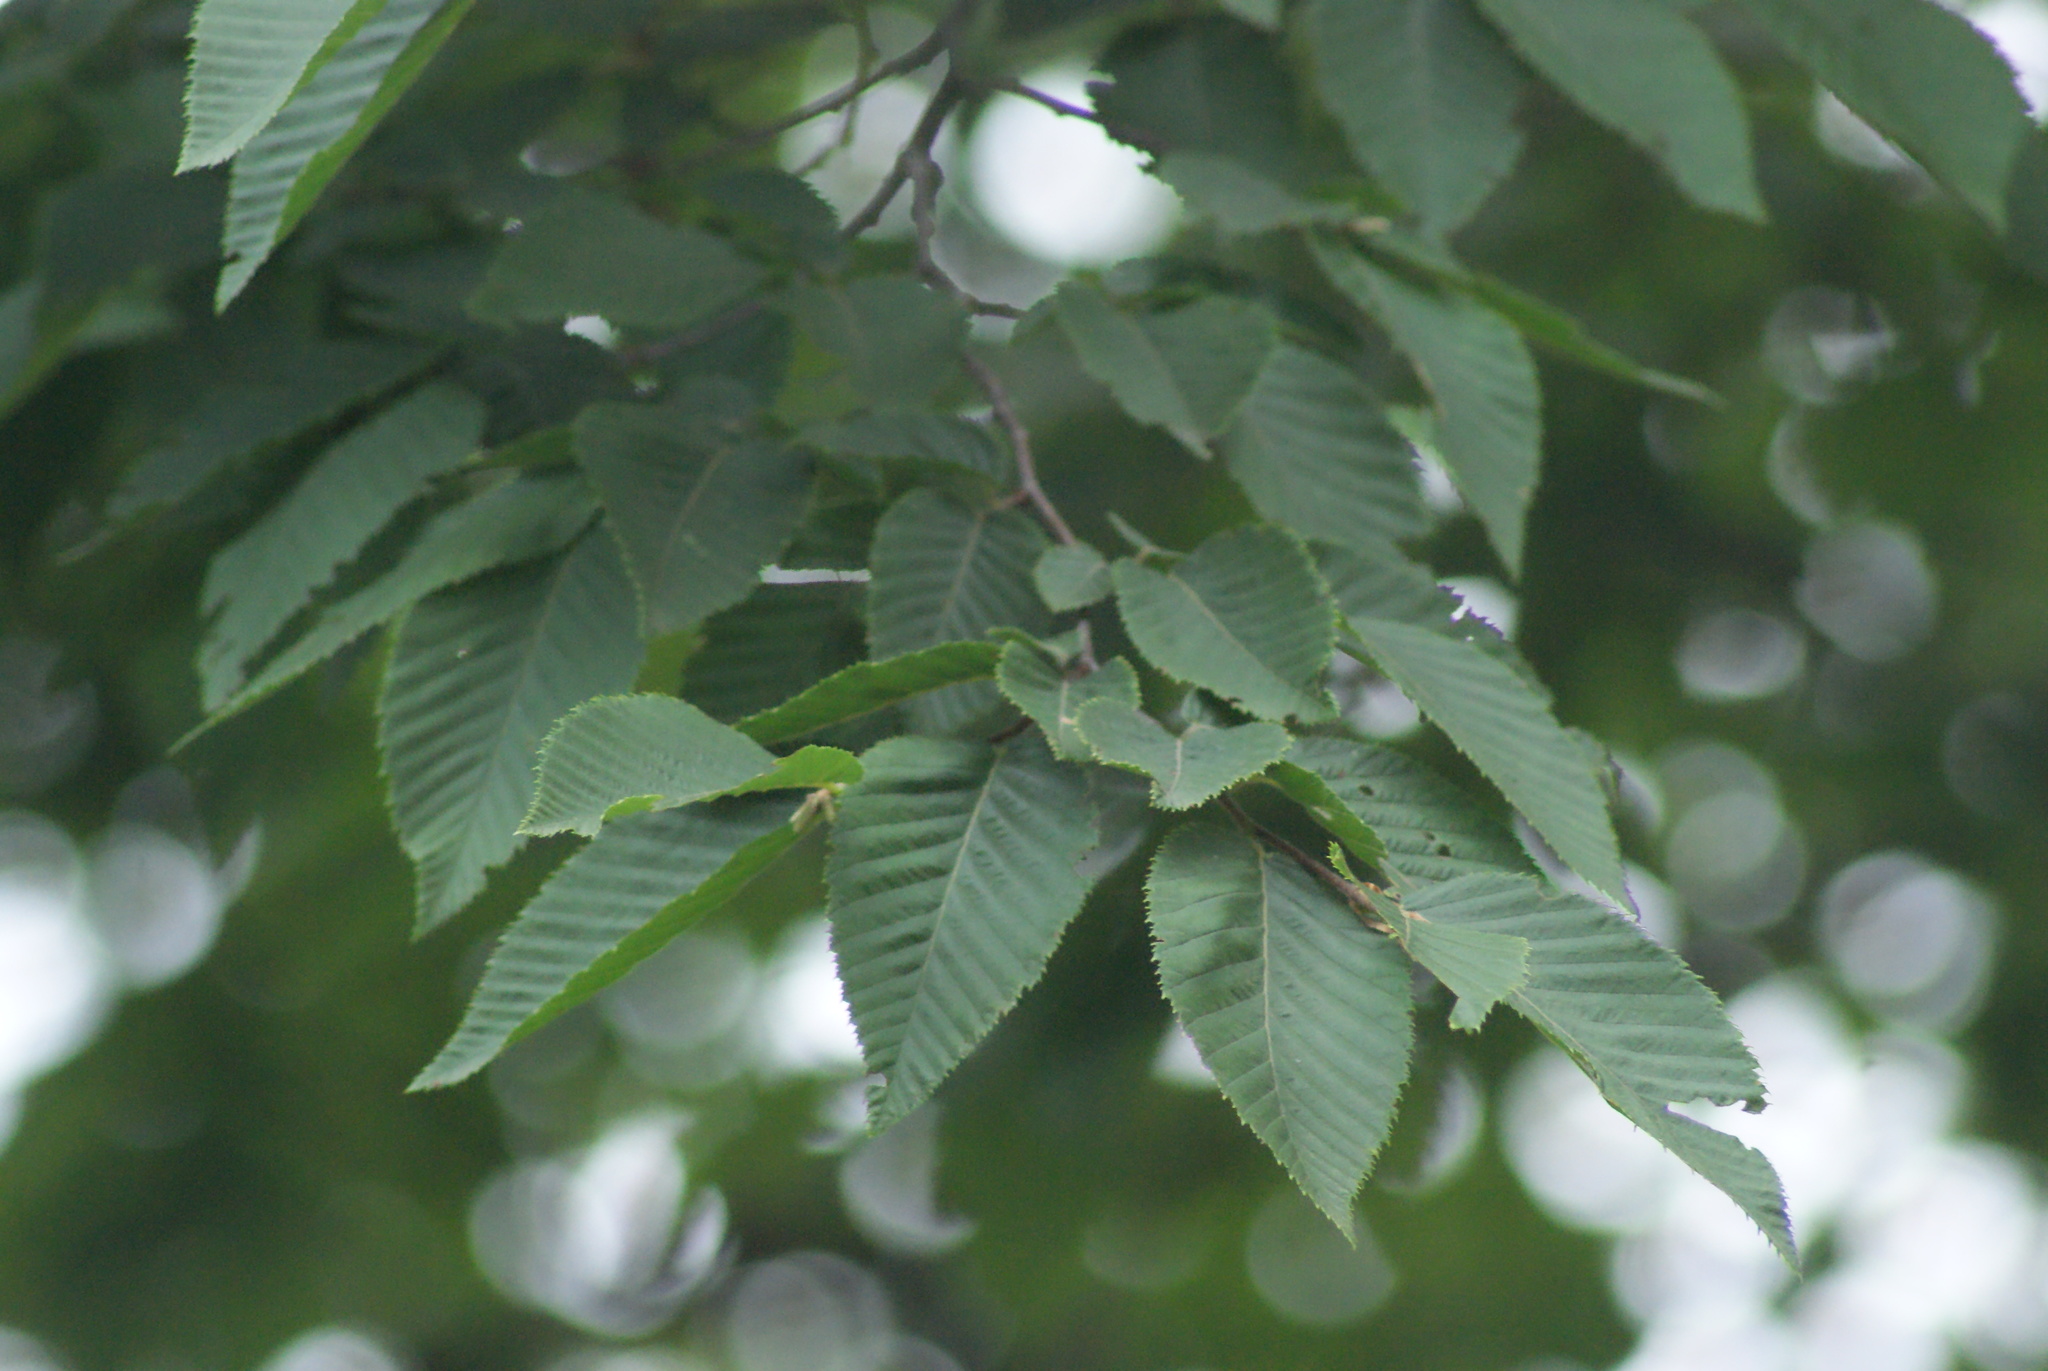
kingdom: Plantae
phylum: Tracheophyta
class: Magnoliopsida
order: Fagales
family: Betulaceae
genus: Ostrya
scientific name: Ostrya carpinifolia
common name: European hop-hornbeam
